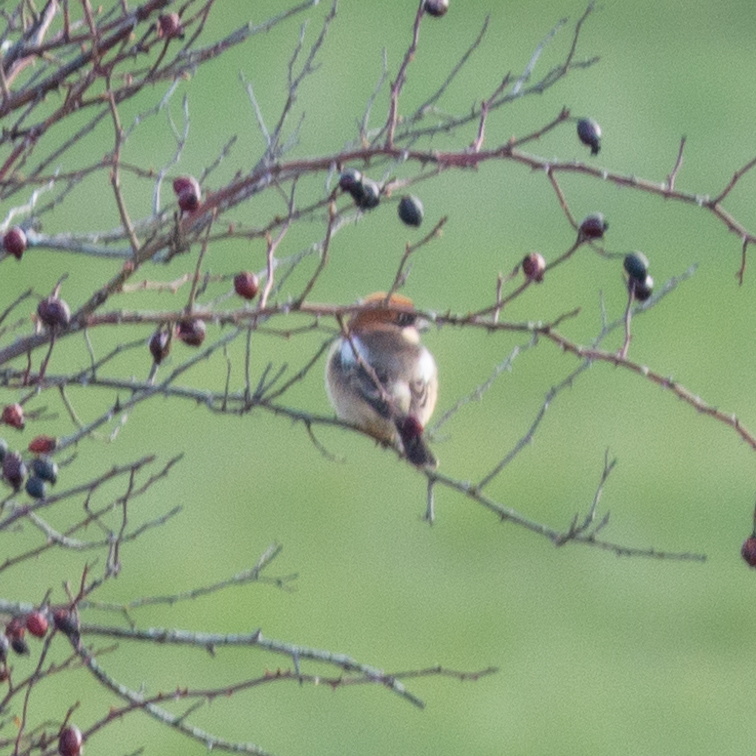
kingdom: Animalia
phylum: Chordata
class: Aves
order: Passeriformes
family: Laniidae
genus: Lanius
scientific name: Lanius senator
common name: Woodchat shrike
